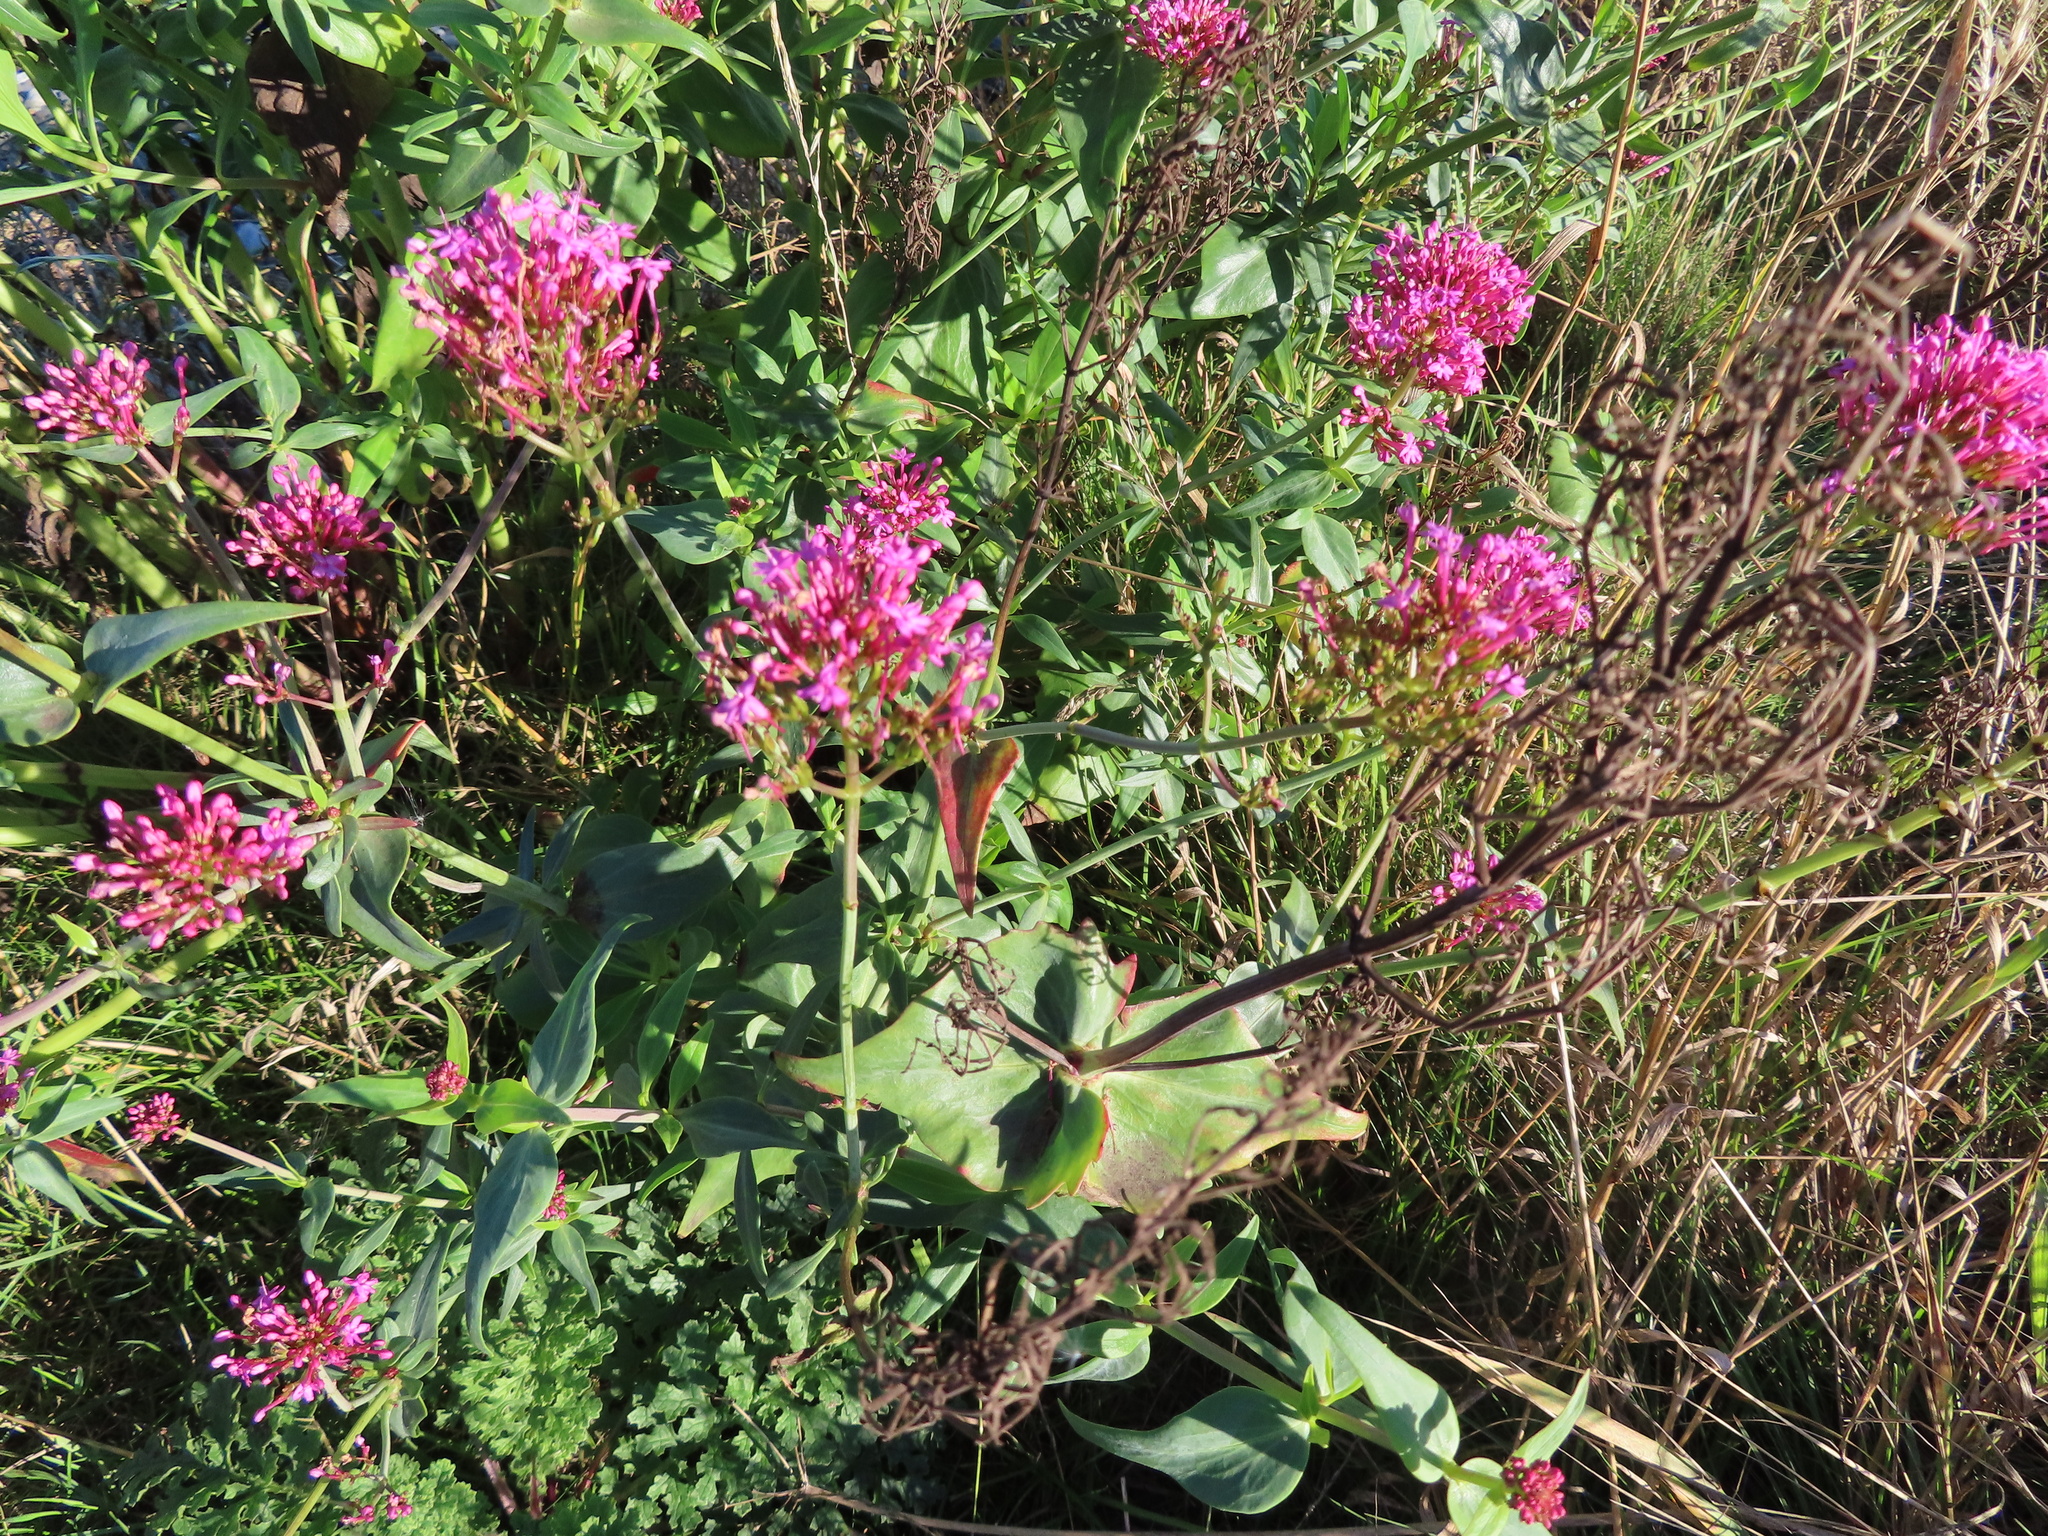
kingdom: Plantae
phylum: Tracheophyta
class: Magnoliopsida
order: Dipsacales
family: Caprifoliaceae
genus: Centranthus
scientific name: Centranthus ruber
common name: Red valerian
